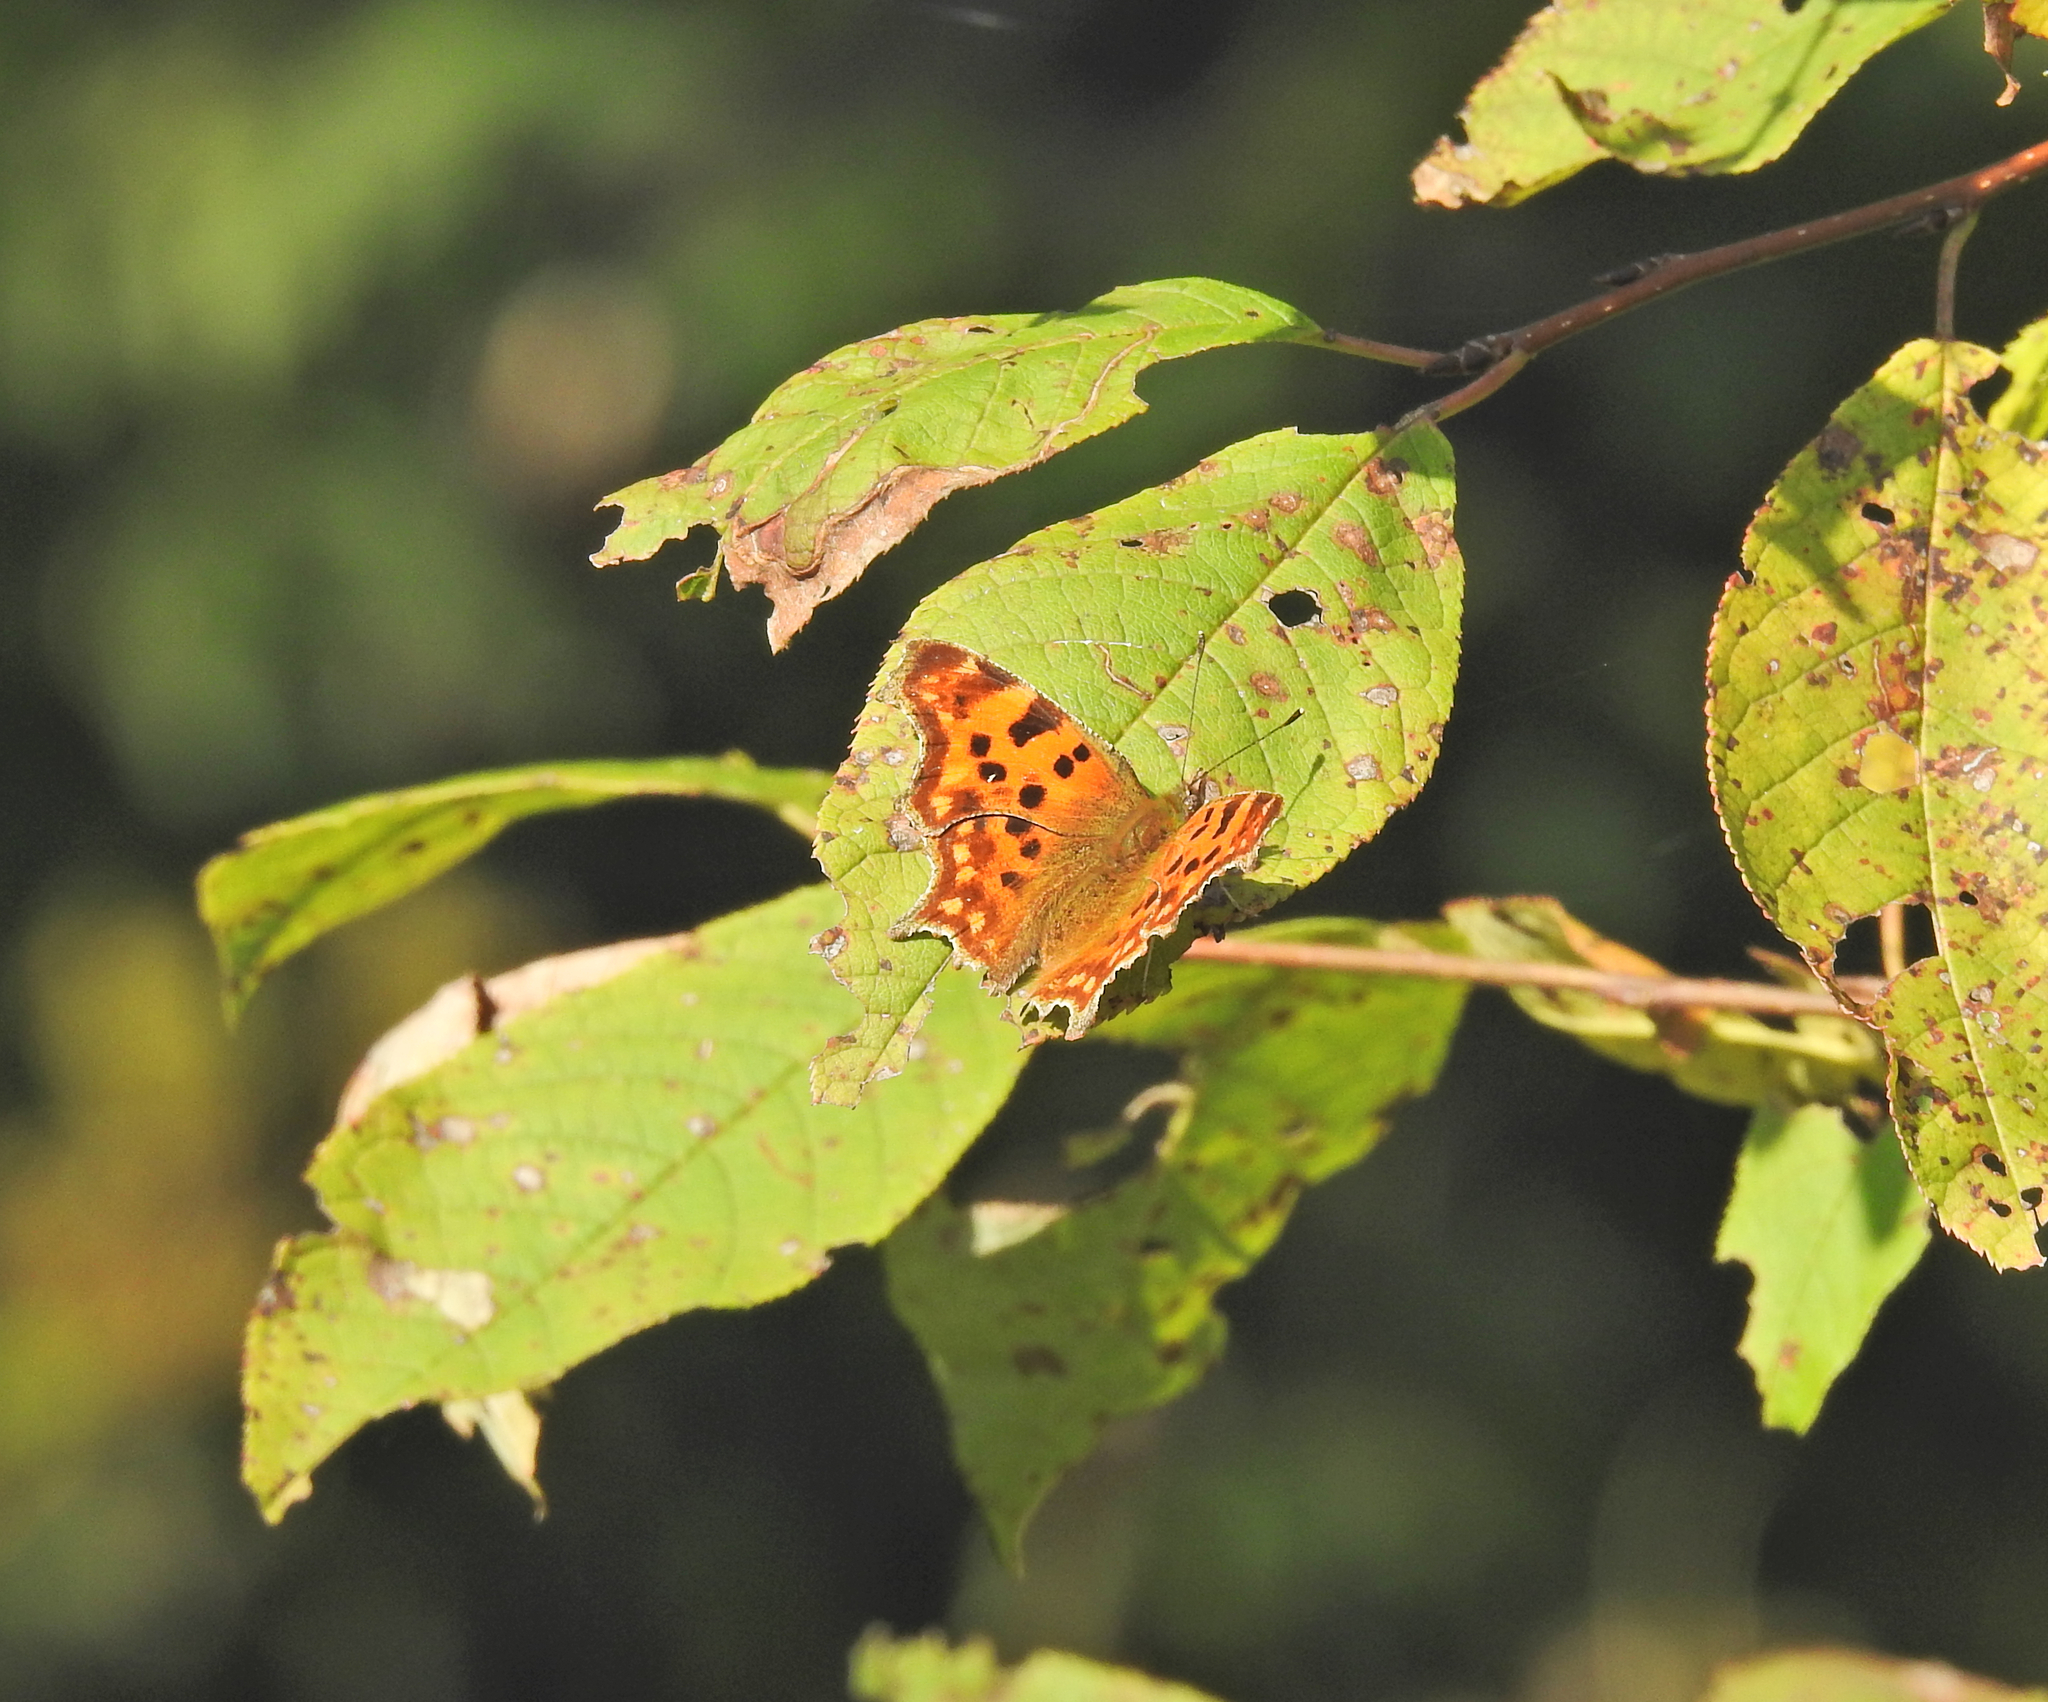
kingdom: Animalia
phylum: Arthropoda
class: Insecta
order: Lepidoptera
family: Nymphalidae
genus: Polygonia
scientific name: Polygonia c-album
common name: Comma
